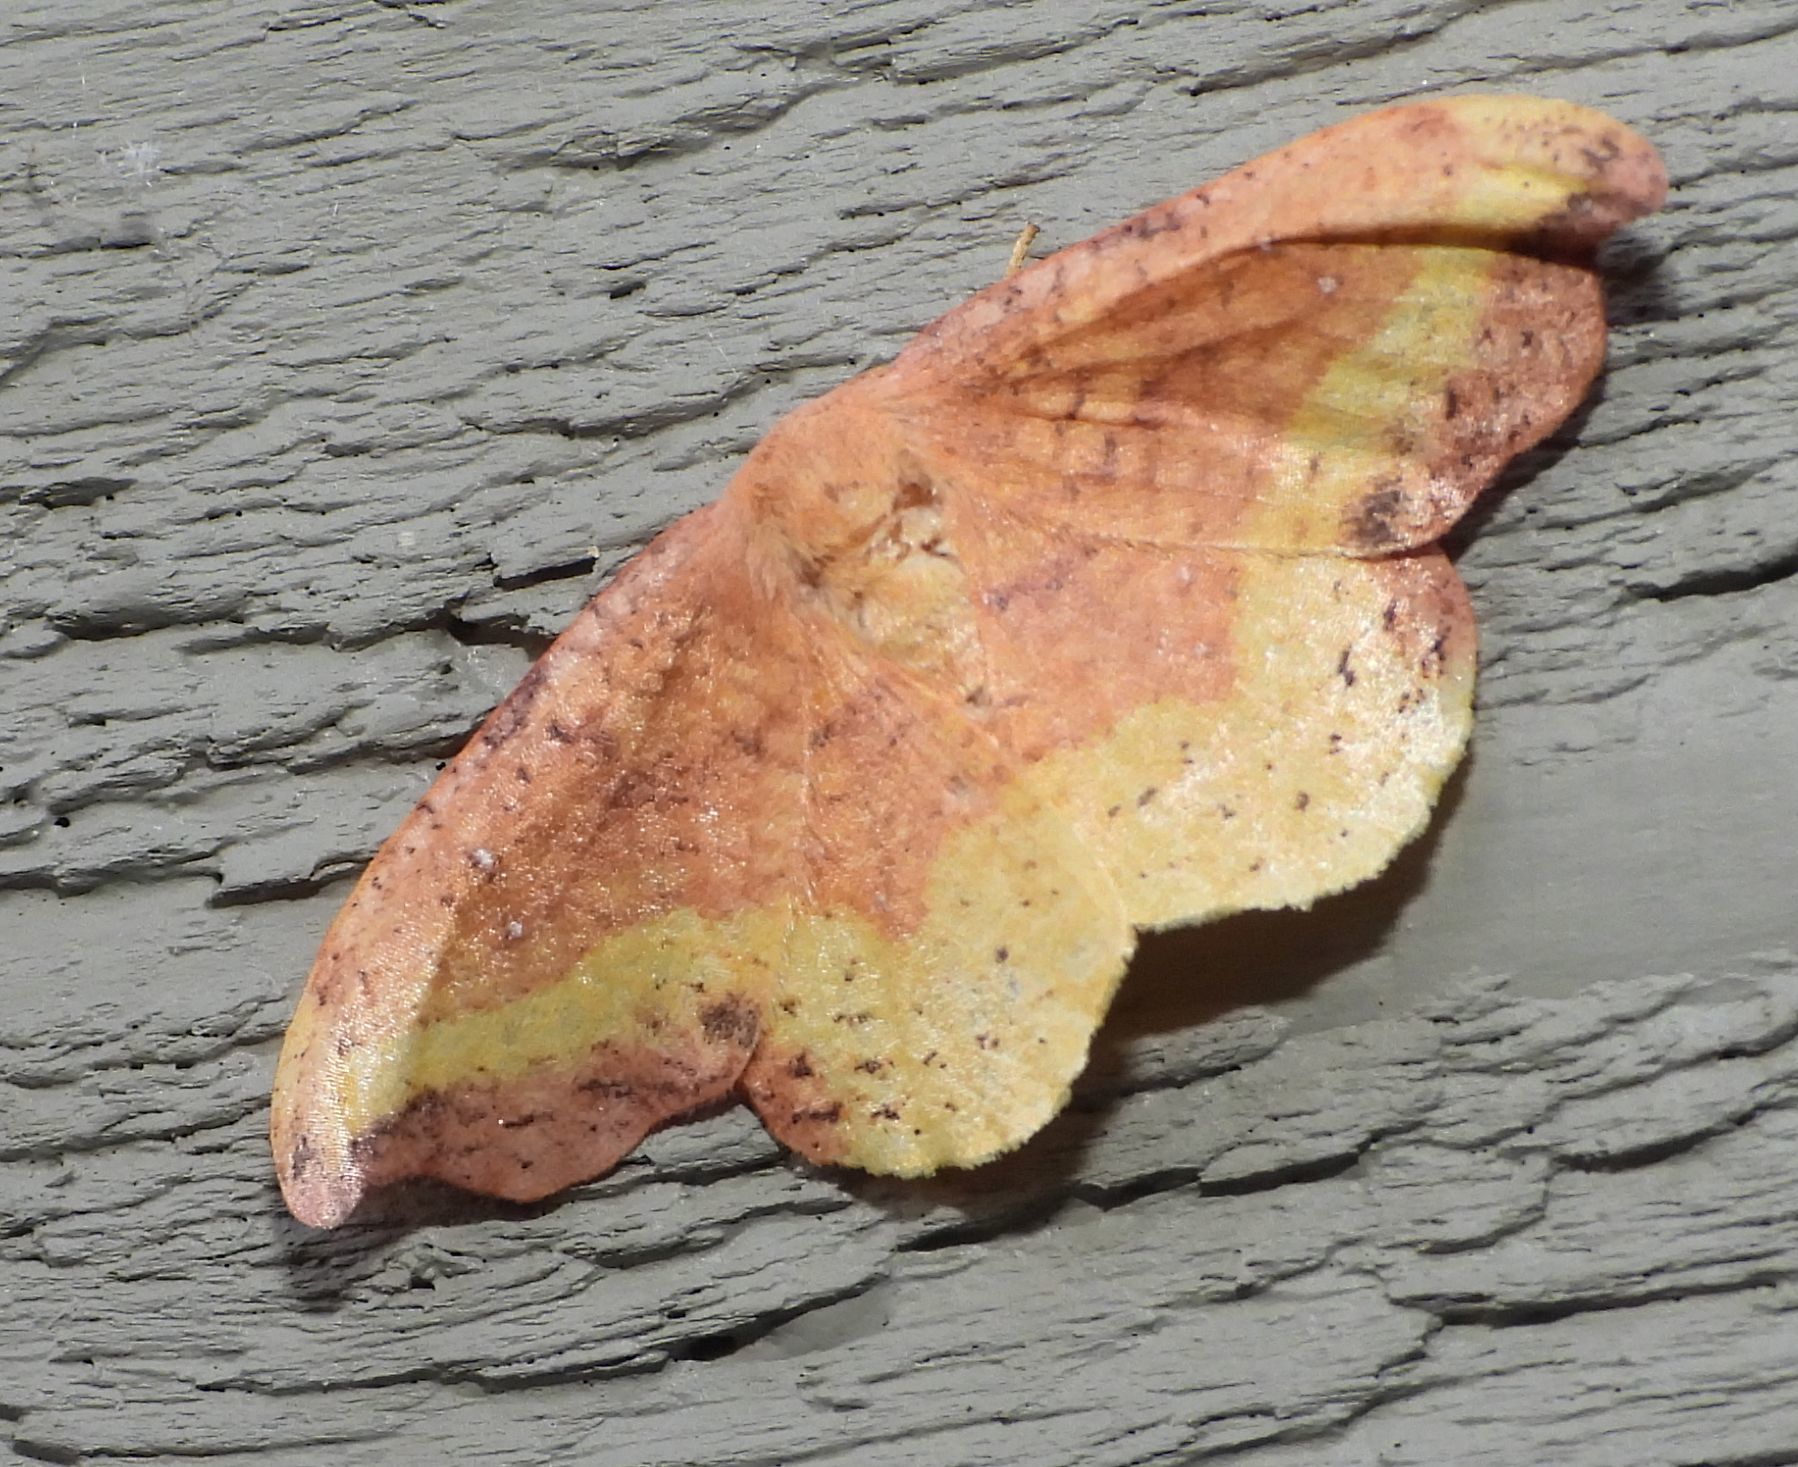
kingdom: Animalia
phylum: Arthropoda
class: Insecta
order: Lepidoptera
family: Drepanidae
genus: Oreta
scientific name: Oreta rosea
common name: Rose hooktip
